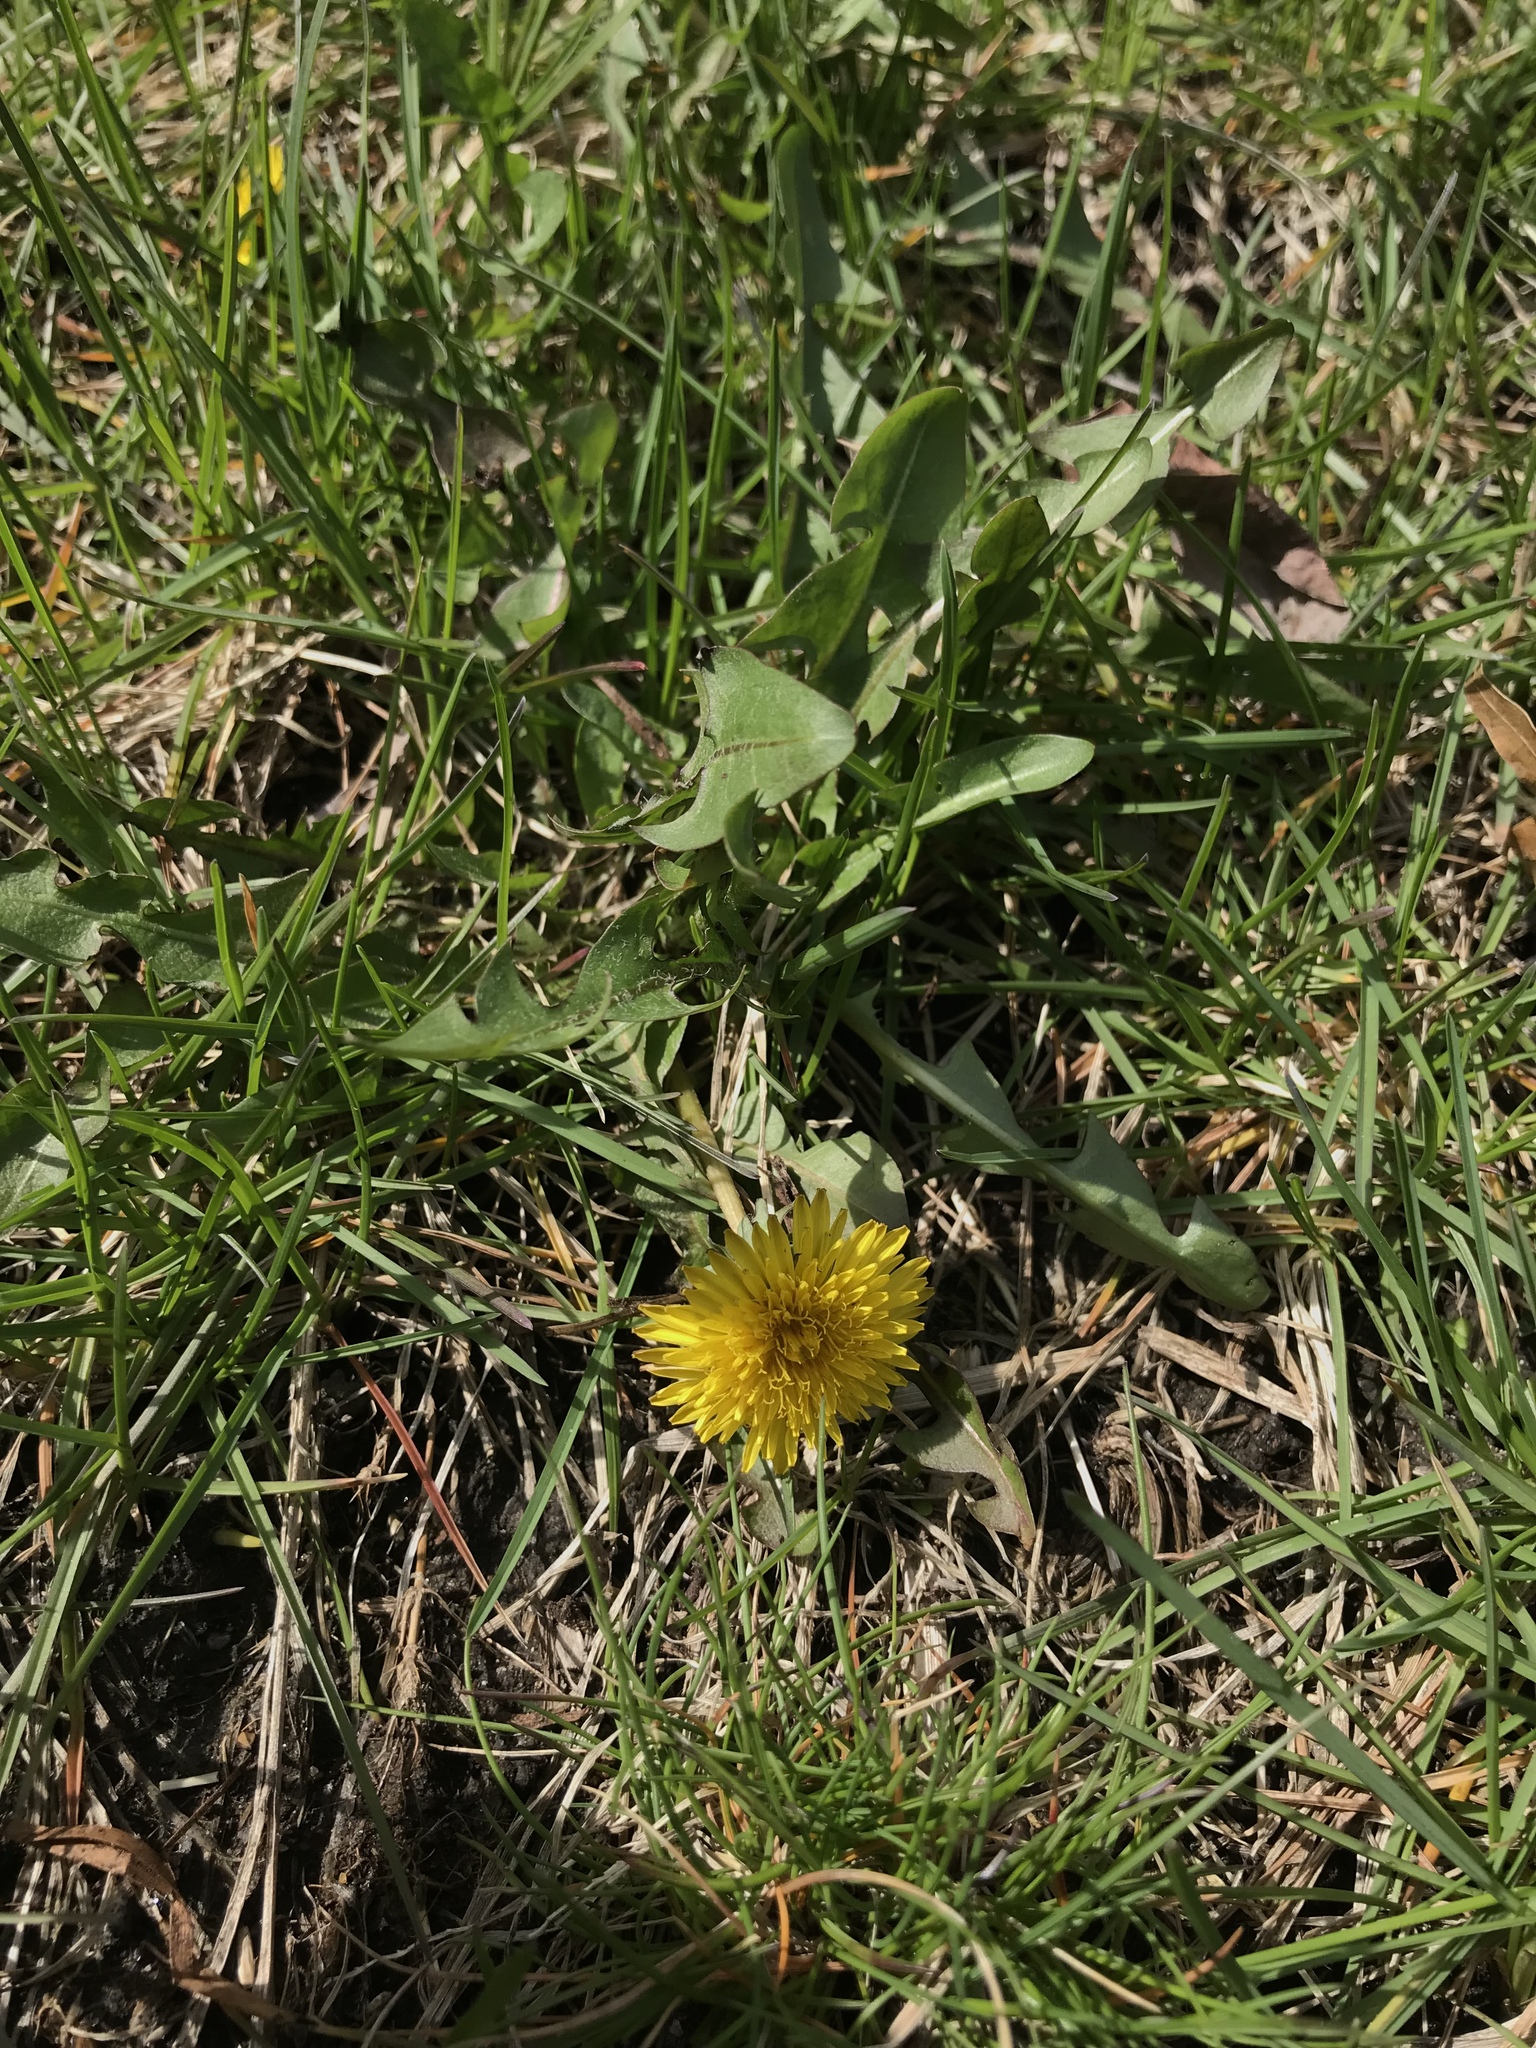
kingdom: Plantae
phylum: Tracheophyta
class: Magnoliopsida
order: Asterales
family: Asteraceae
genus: Taraxacum
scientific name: Taraxacum officinale
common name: Common dandelion
